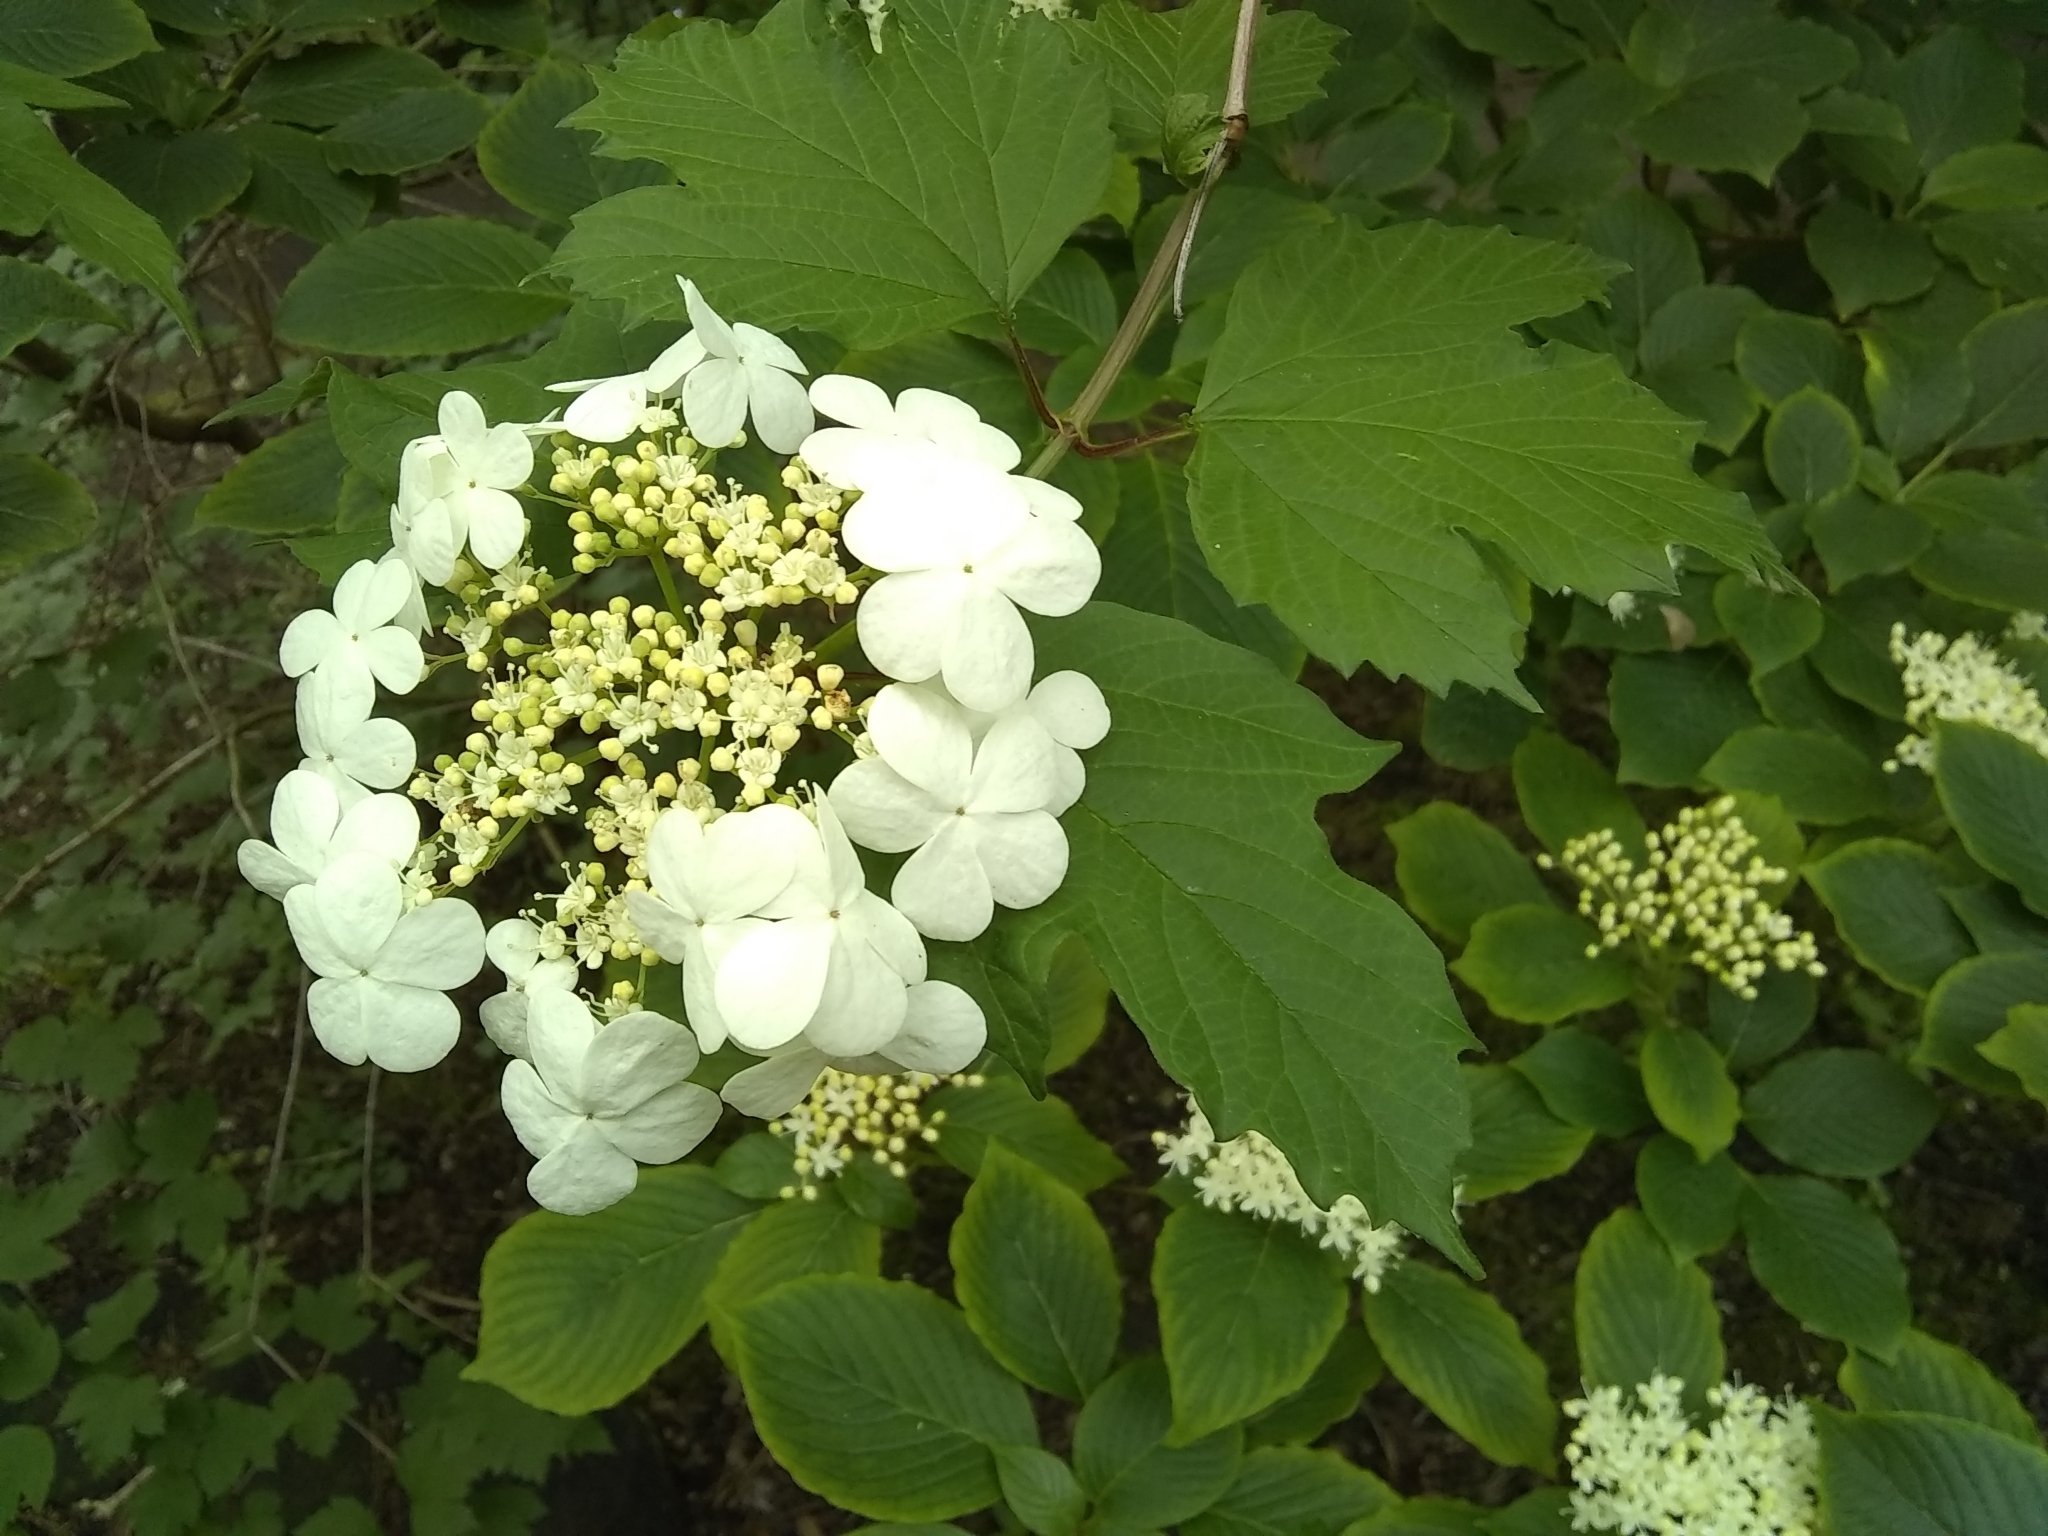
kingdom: Plantae
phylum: Tracheophyta
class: Magnoliopsida
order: Dipsacales
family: Viburnaceae
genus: Viburnum
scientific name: Viburnum opulus
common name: Guelder-rose
